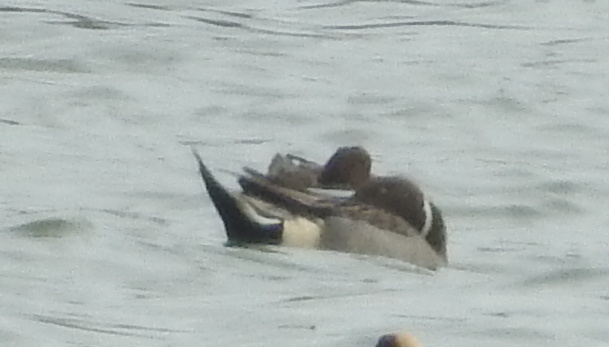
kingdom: Animalia
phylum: Chordata
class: Aves
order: Anseriformes
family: Anatidae
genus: Anas
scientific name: Anas acuta
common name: Northern pintail
